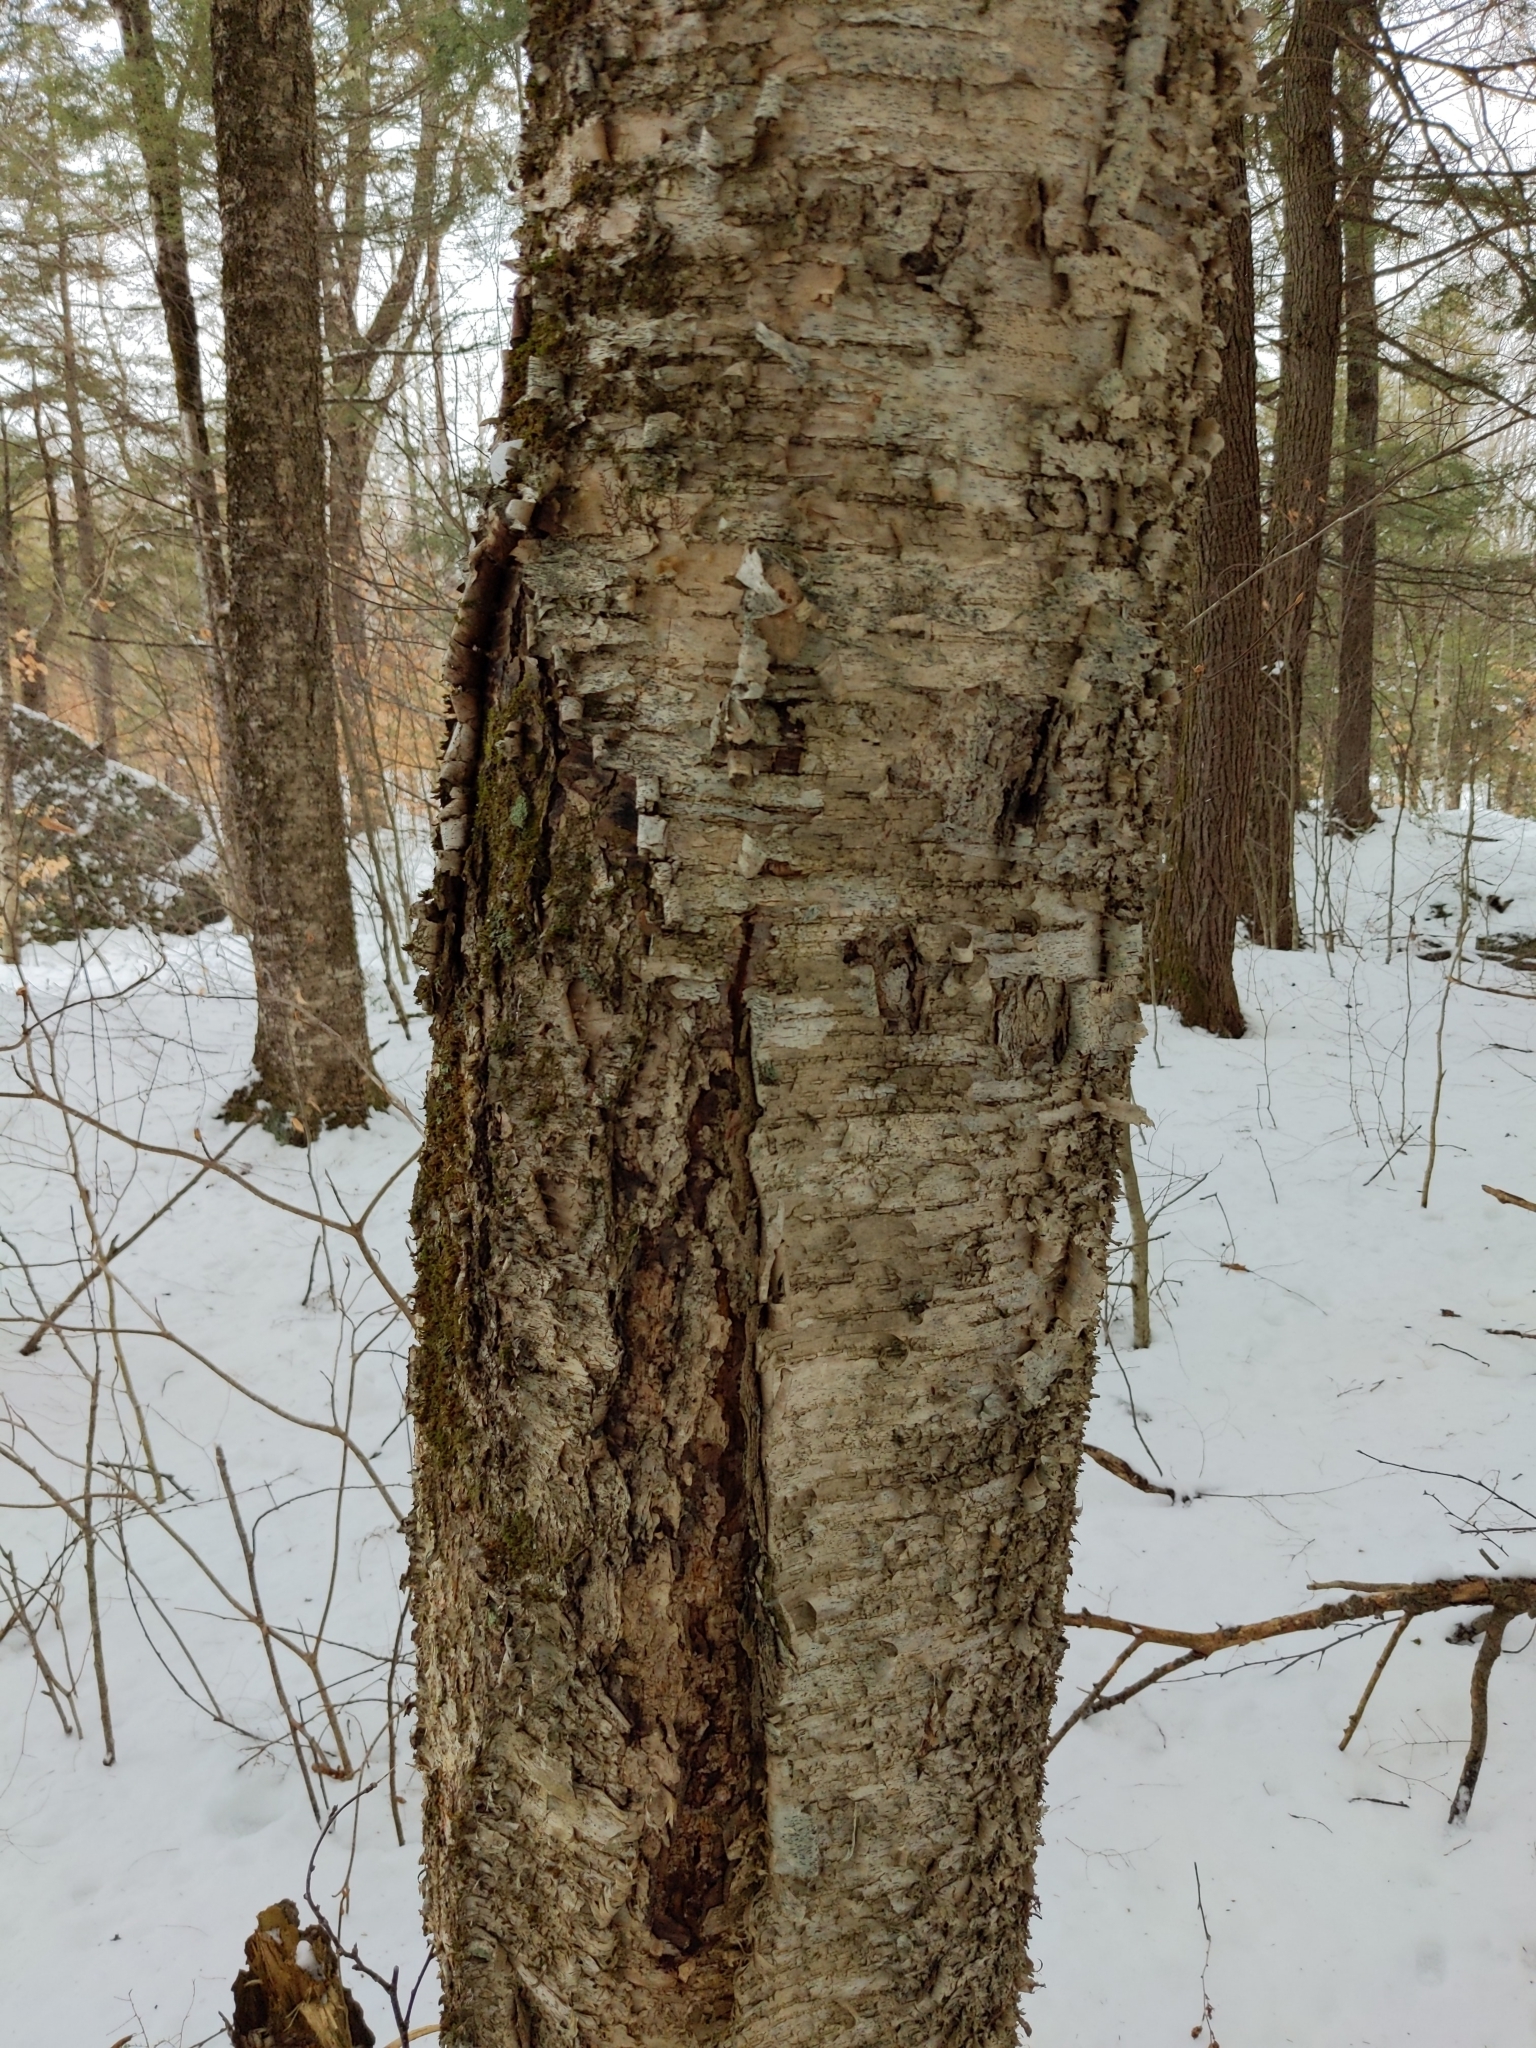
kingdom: Plantae
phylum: Tracheophyta
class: Magnoliopsida
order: Fagales
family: Betulaceae
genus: Betula
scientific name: Betula alleghaniensis
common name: Yellow birch
